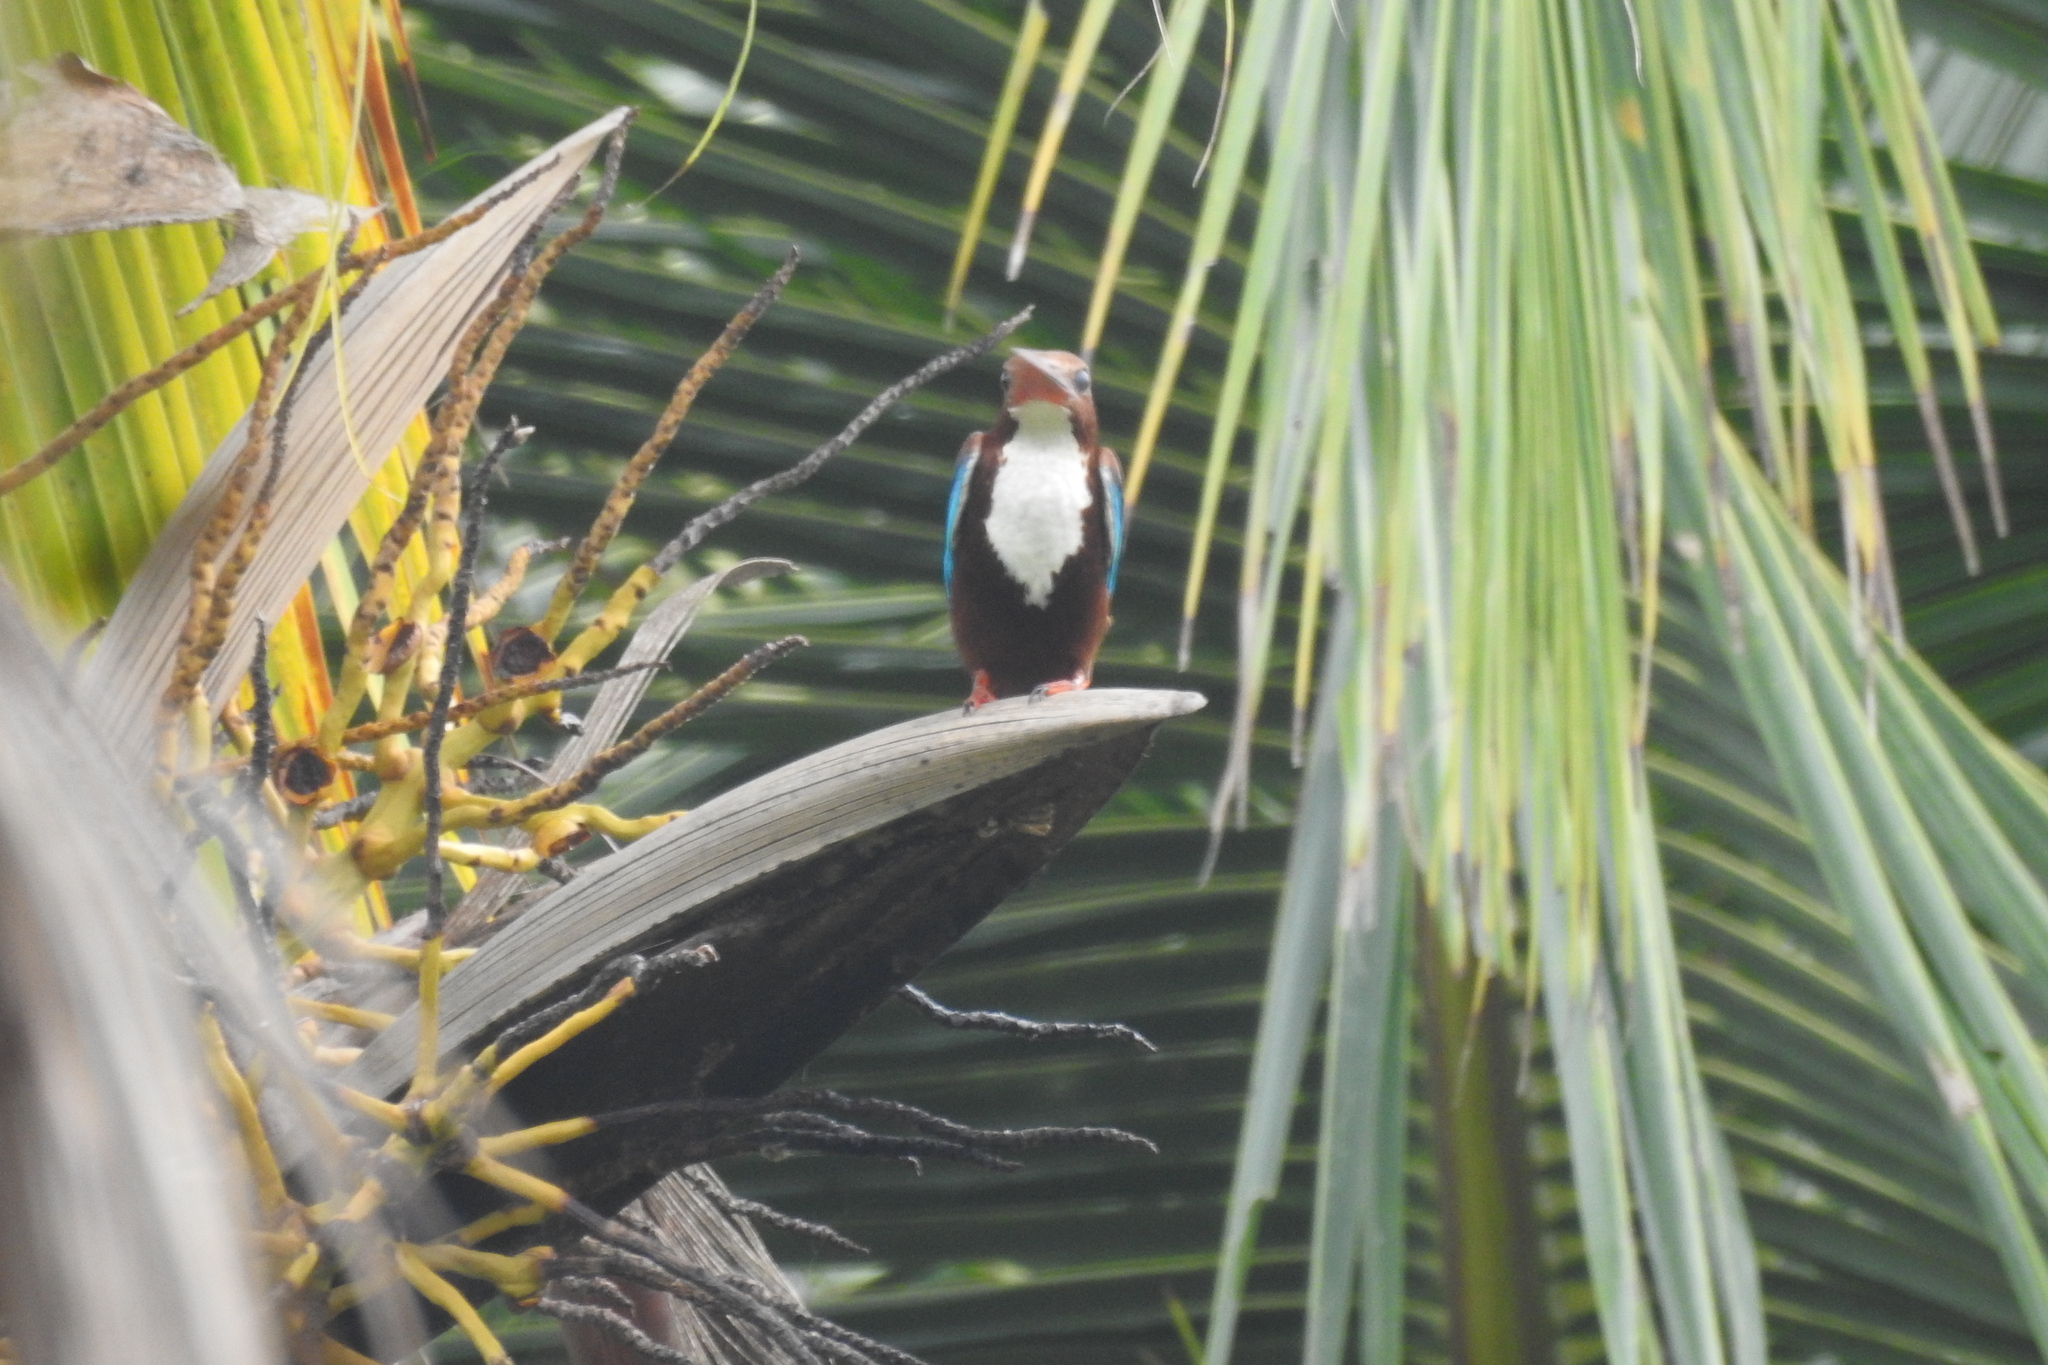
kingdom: Animalia
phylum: Chordata
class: Aves
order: Coraciiformes
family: Alcedinidae
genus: Halcyon
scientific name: Halcyon smyrnensis
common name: White-throated kingfisher
